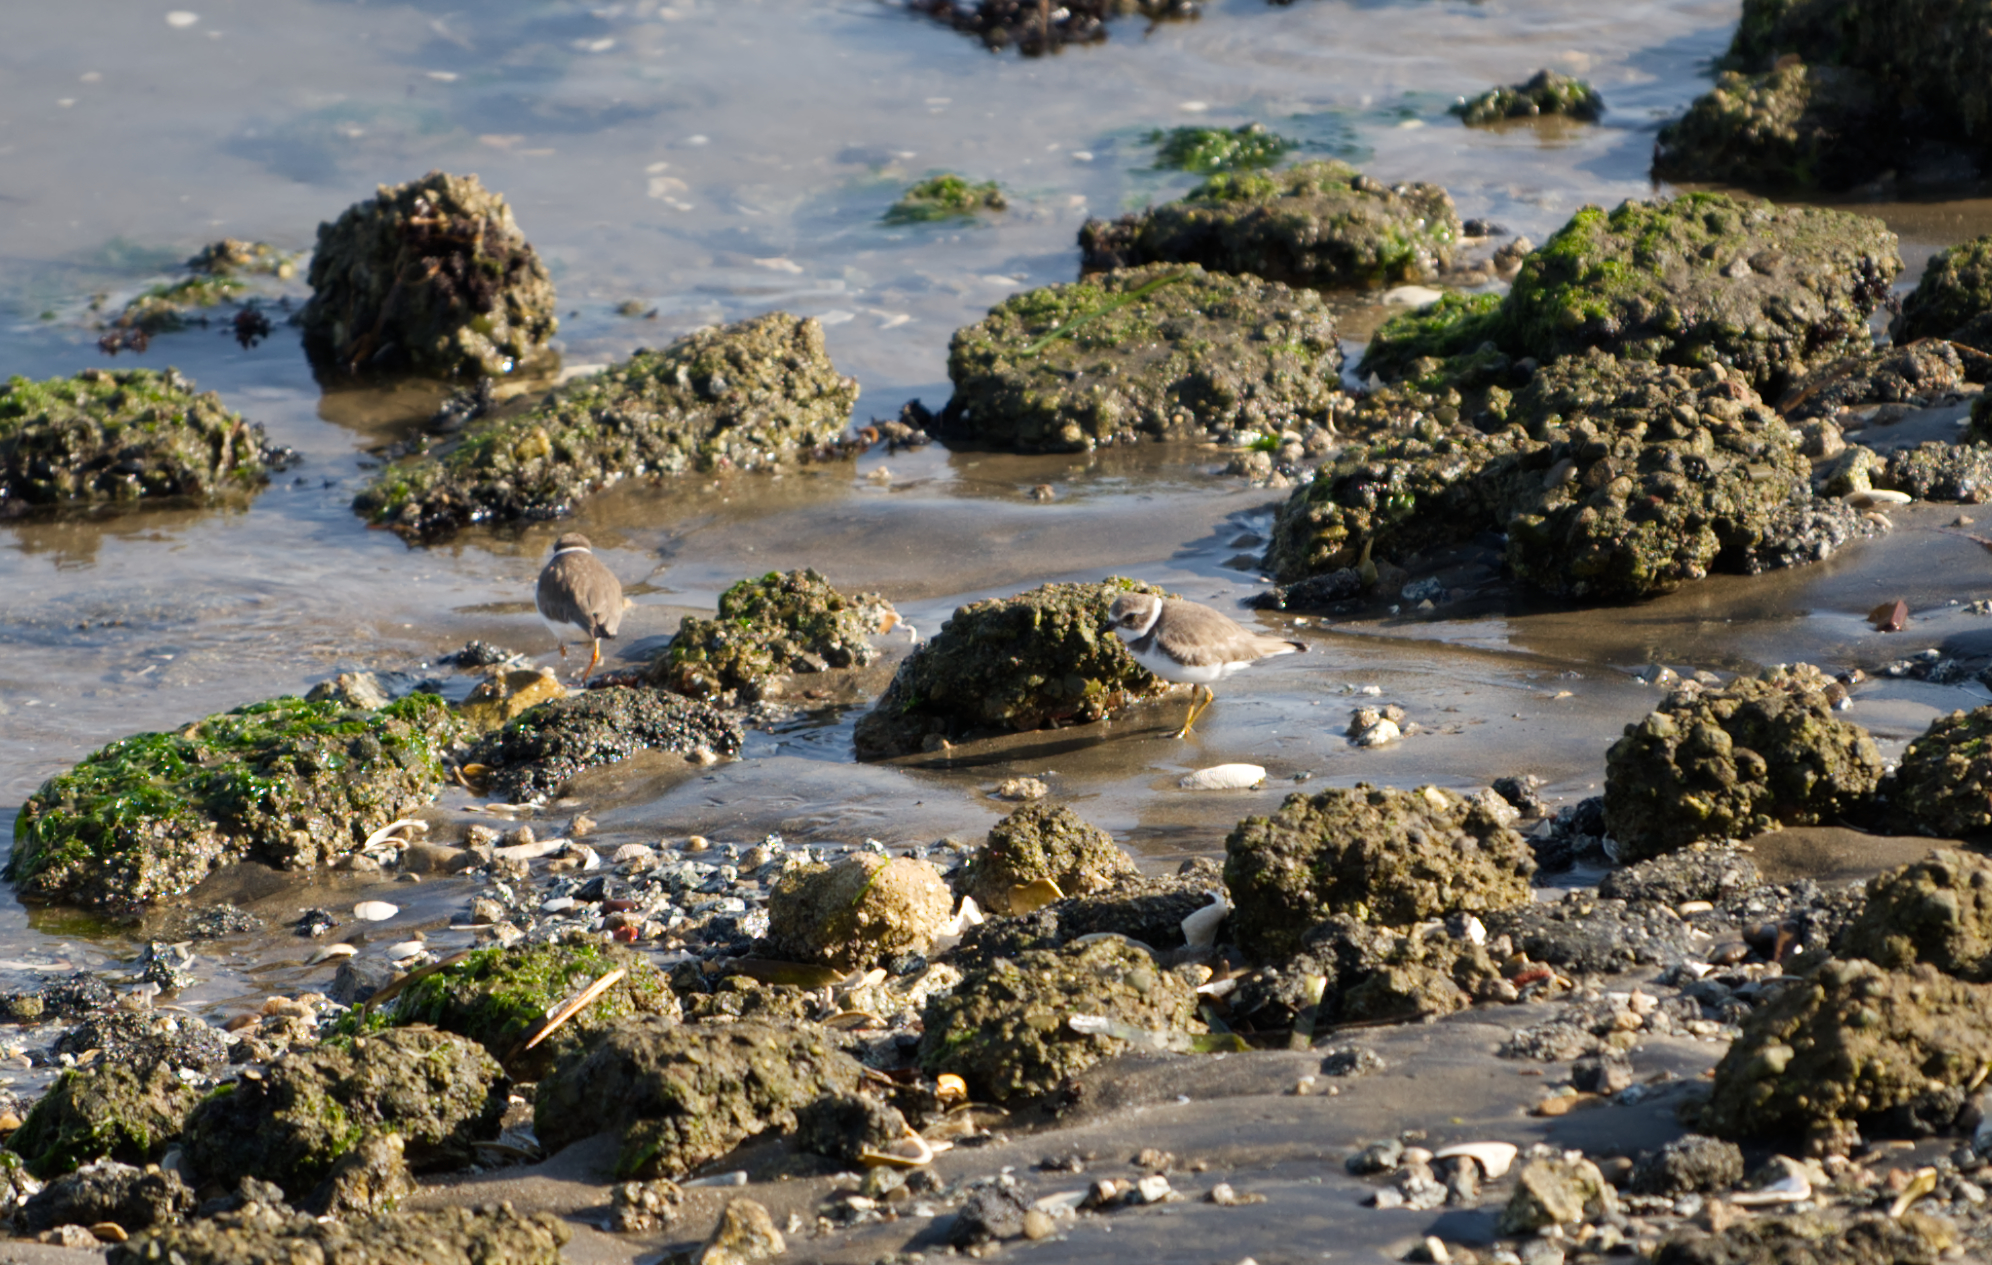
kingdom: Animalia
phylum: Chordata
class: Aves
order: Charadriiformes
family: Charadriidae
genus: Charadrius
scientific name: Charadrius semipalmatus
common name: Semipalmated plover
